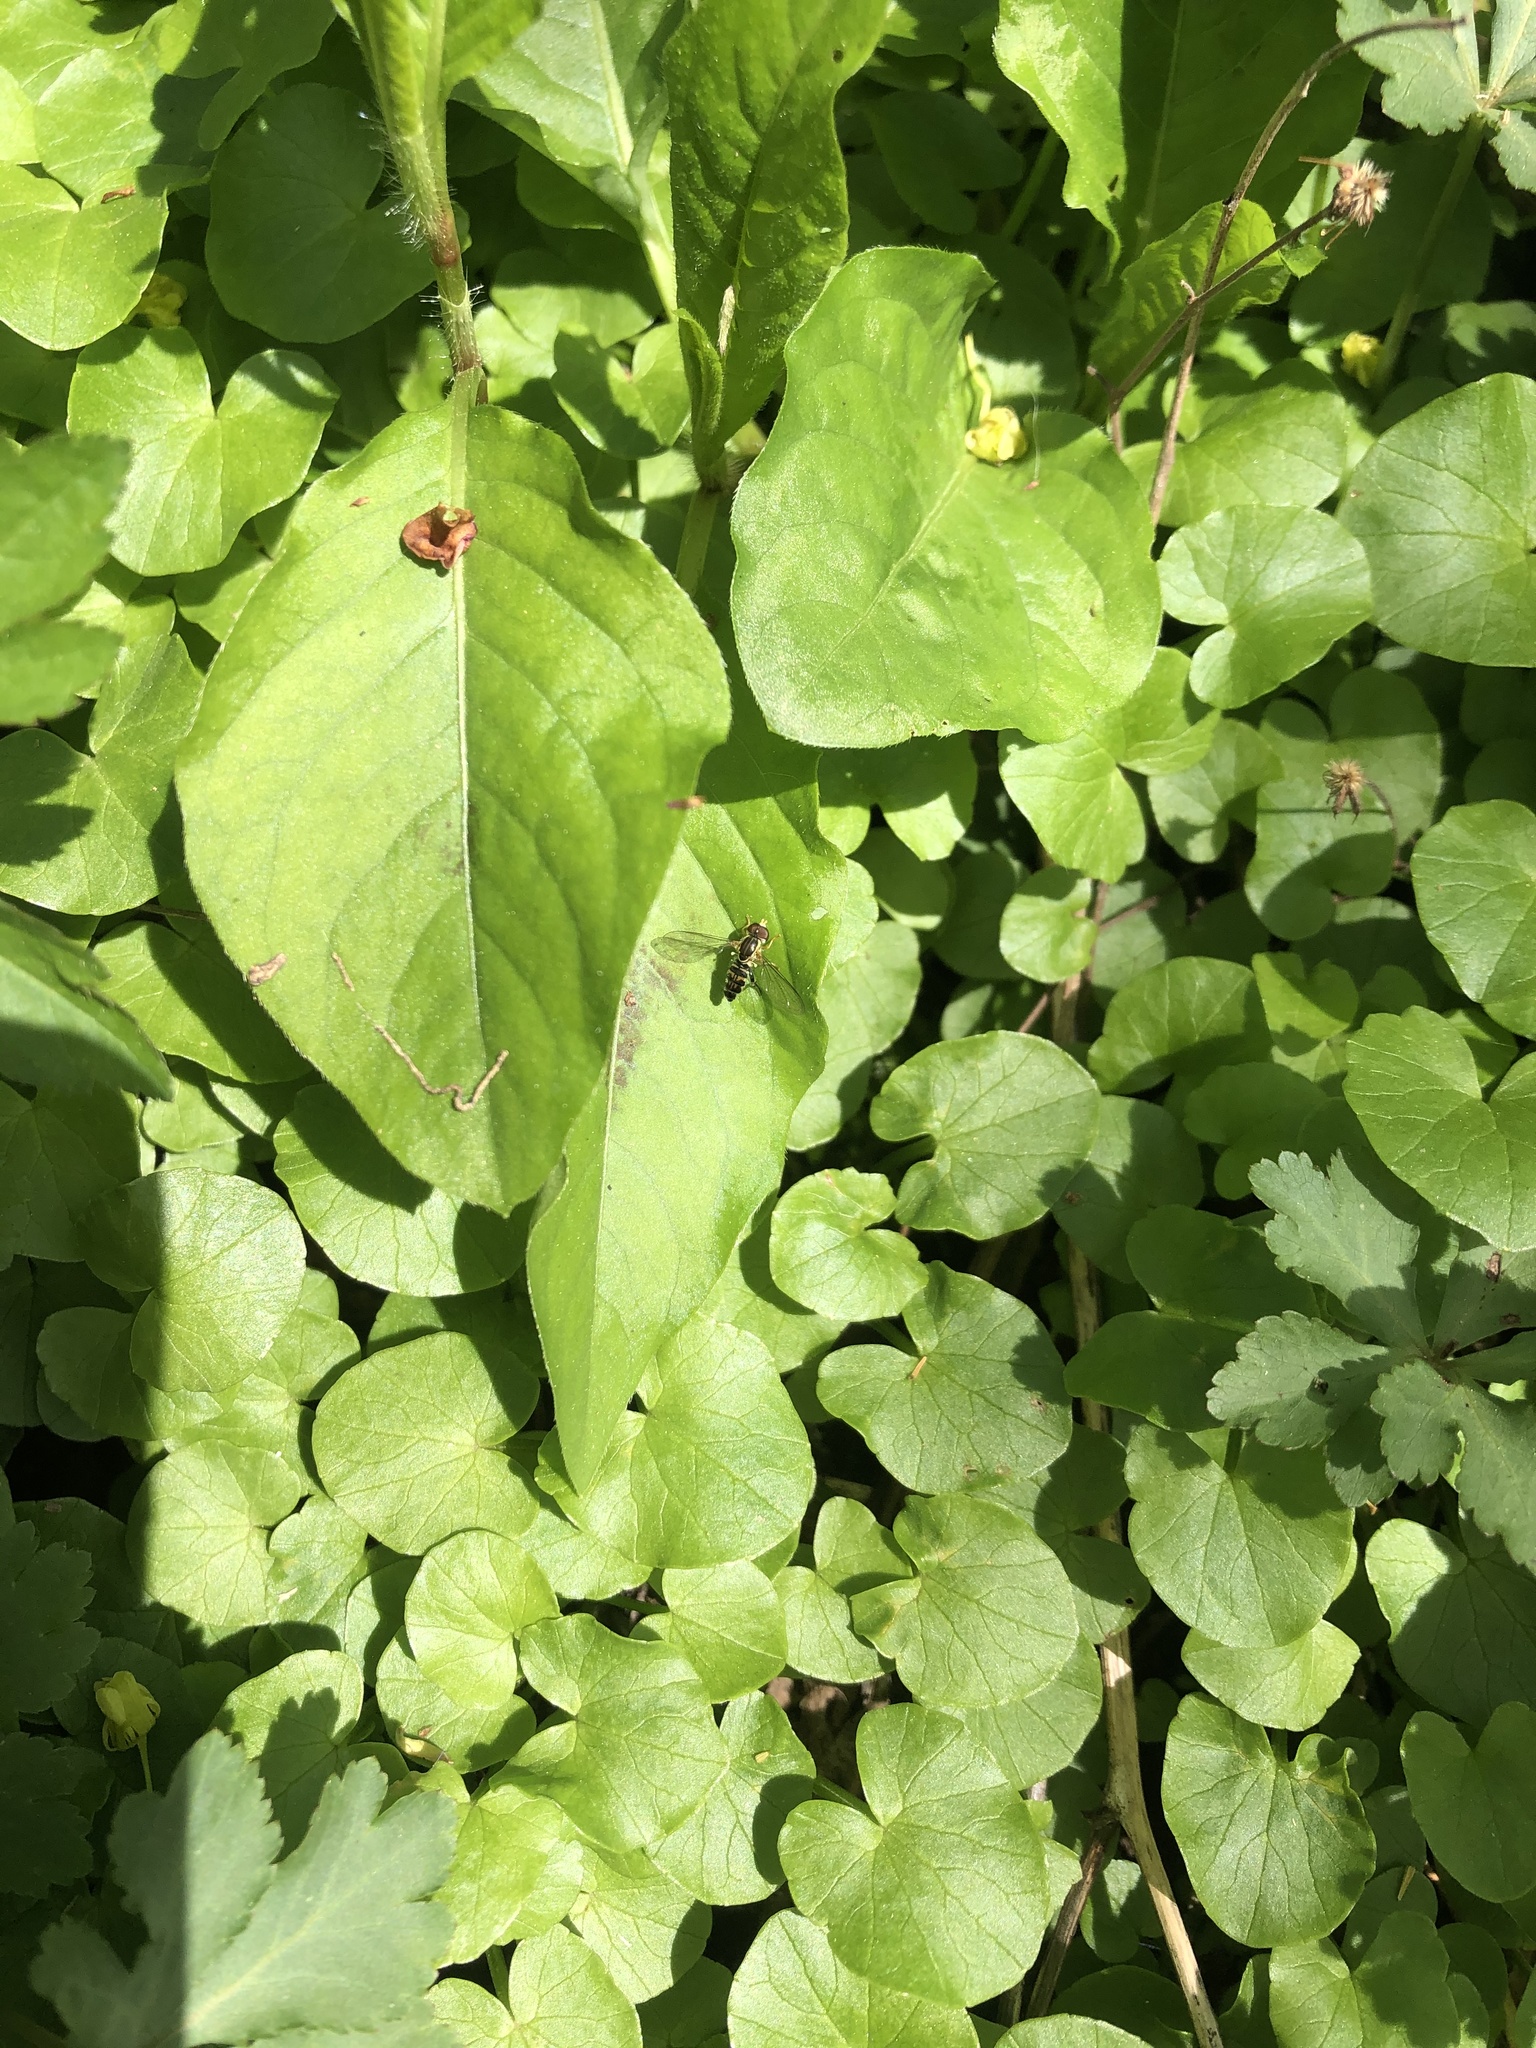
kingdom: Animalia
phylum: Arthropoda
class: Insecta
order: Diptera
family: Syrphidae
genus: Toxomerus
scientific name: Toxomerus geminatus
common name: Eastern calligrapher
